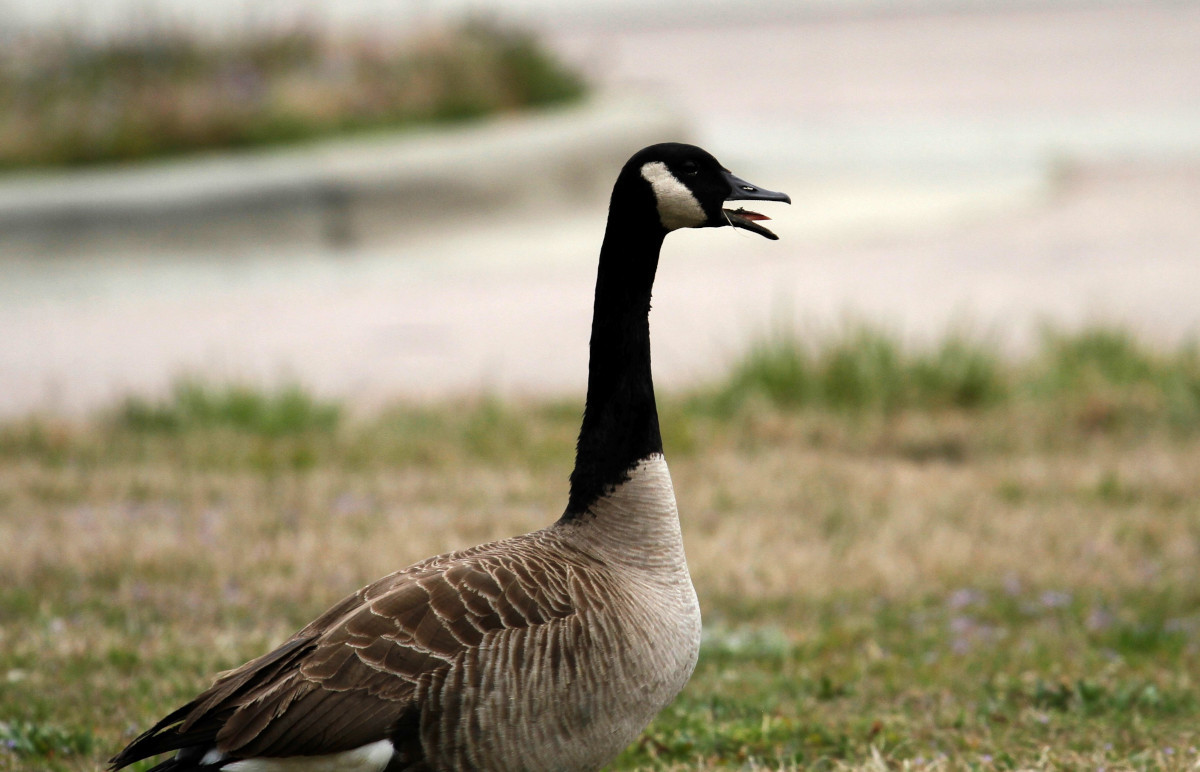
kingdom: Animalia
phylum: Chordata
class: Aves
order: Anseriformes
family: Anatidae
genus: Branta
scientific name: Branta canadensis
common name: Canada goose
